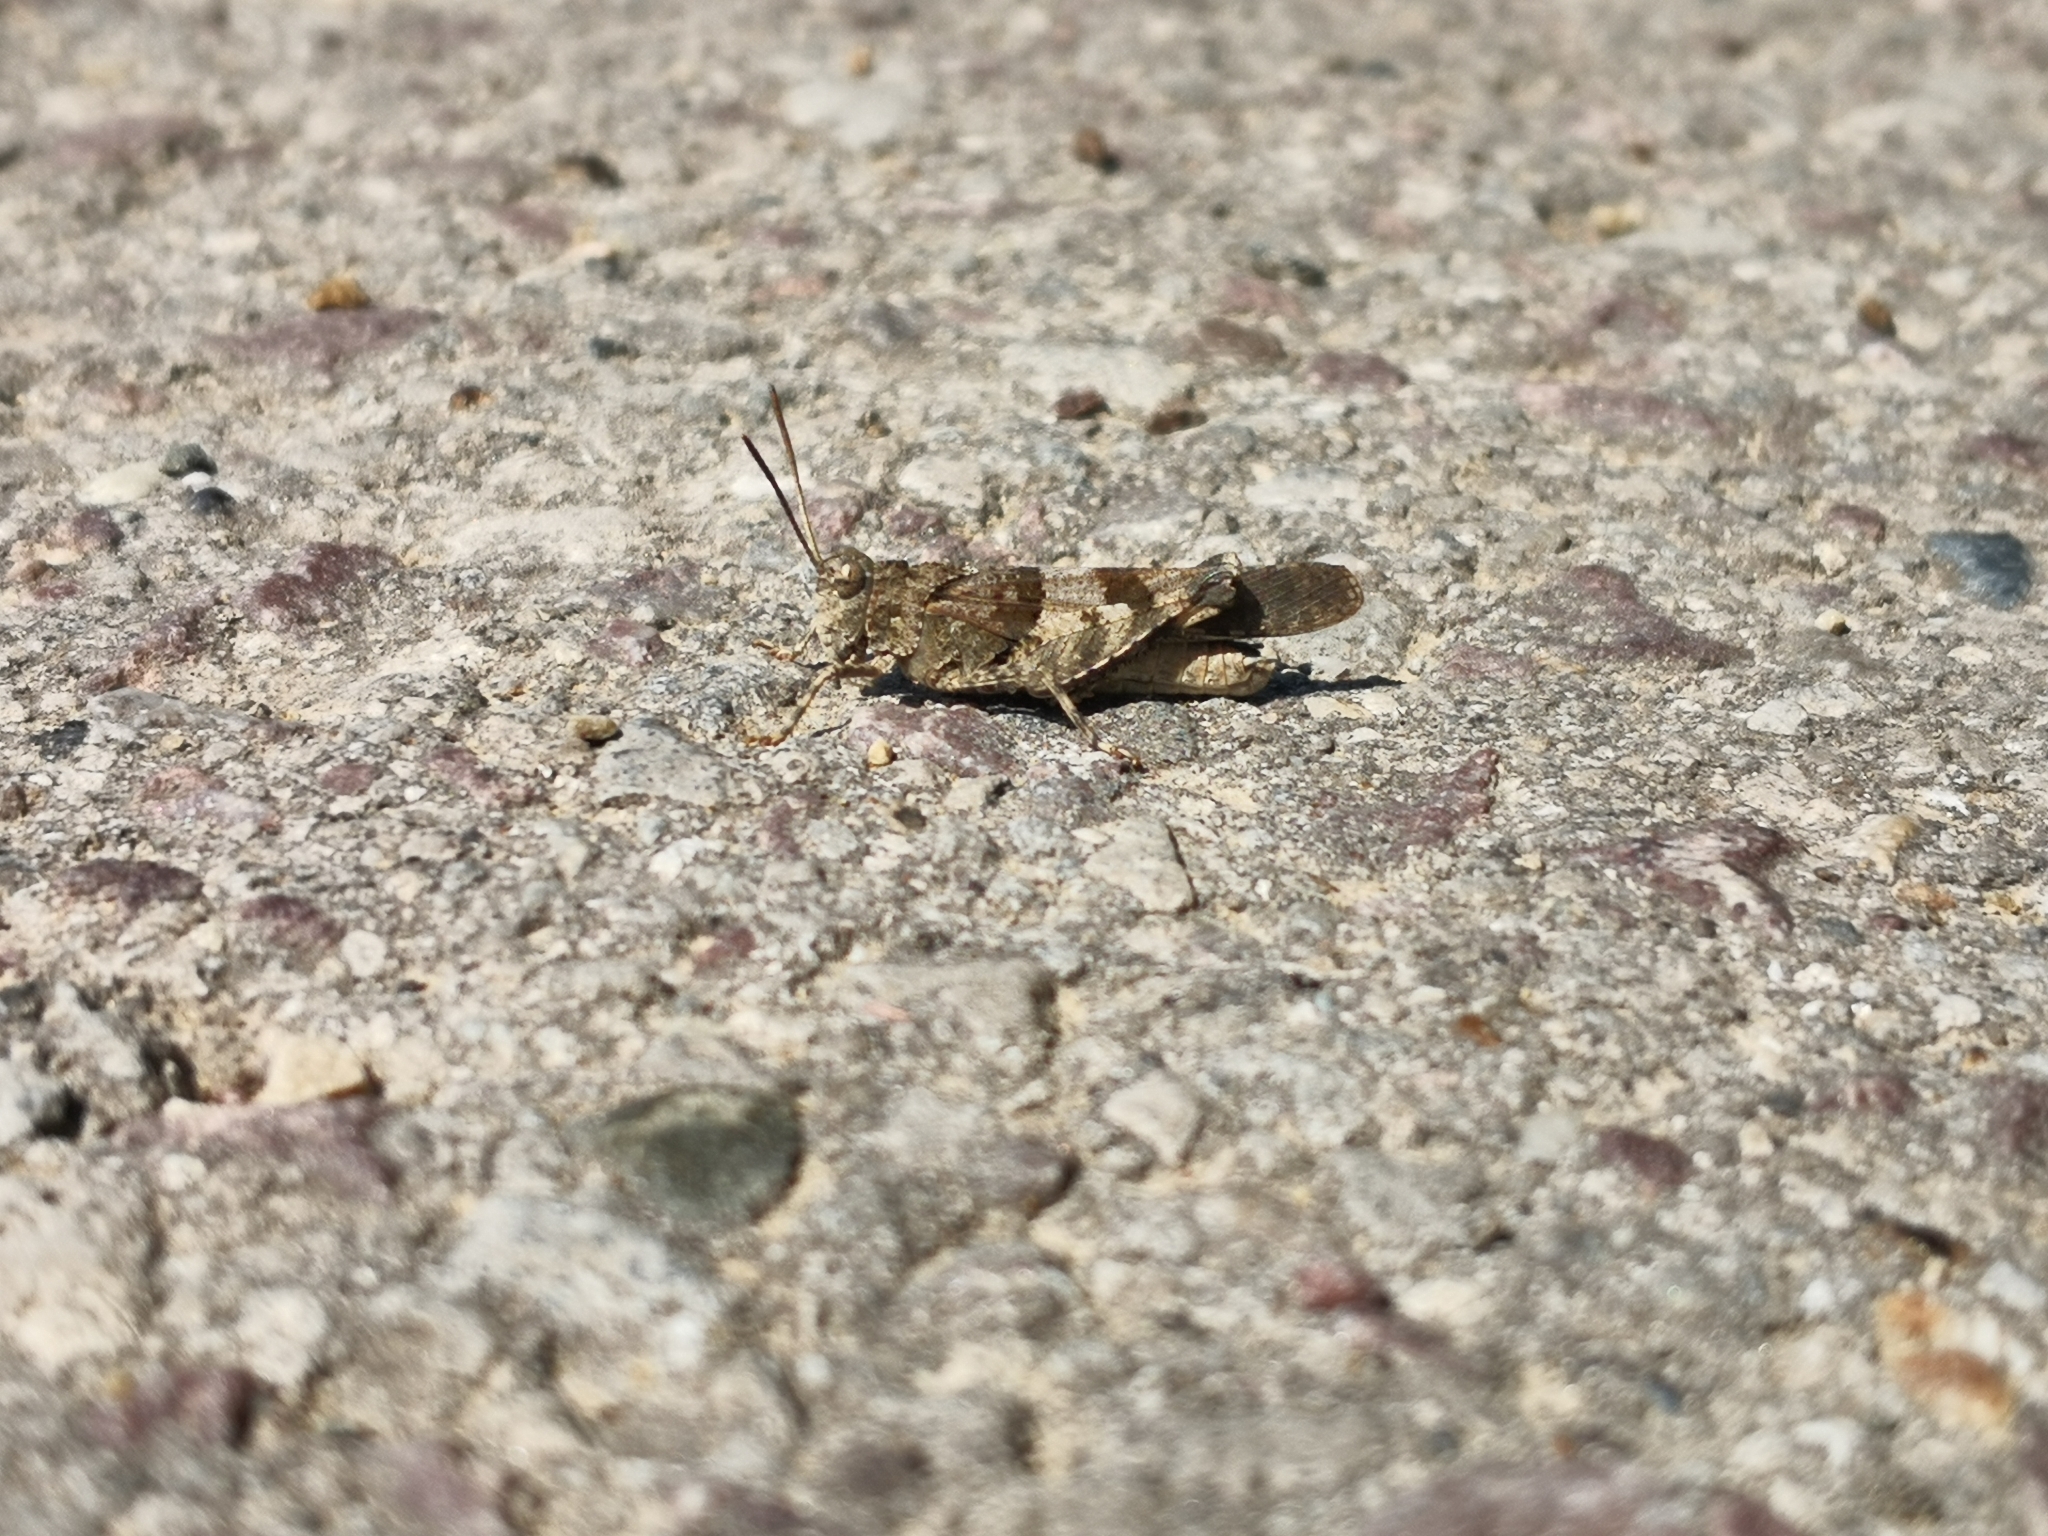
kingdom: Animalia
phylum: Arthropoda
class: Insecta
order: Orthoptera
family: Acrididae
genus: Oedipoda
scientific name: Oedipoda caerulescens
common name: Blue-winged grasshopper
